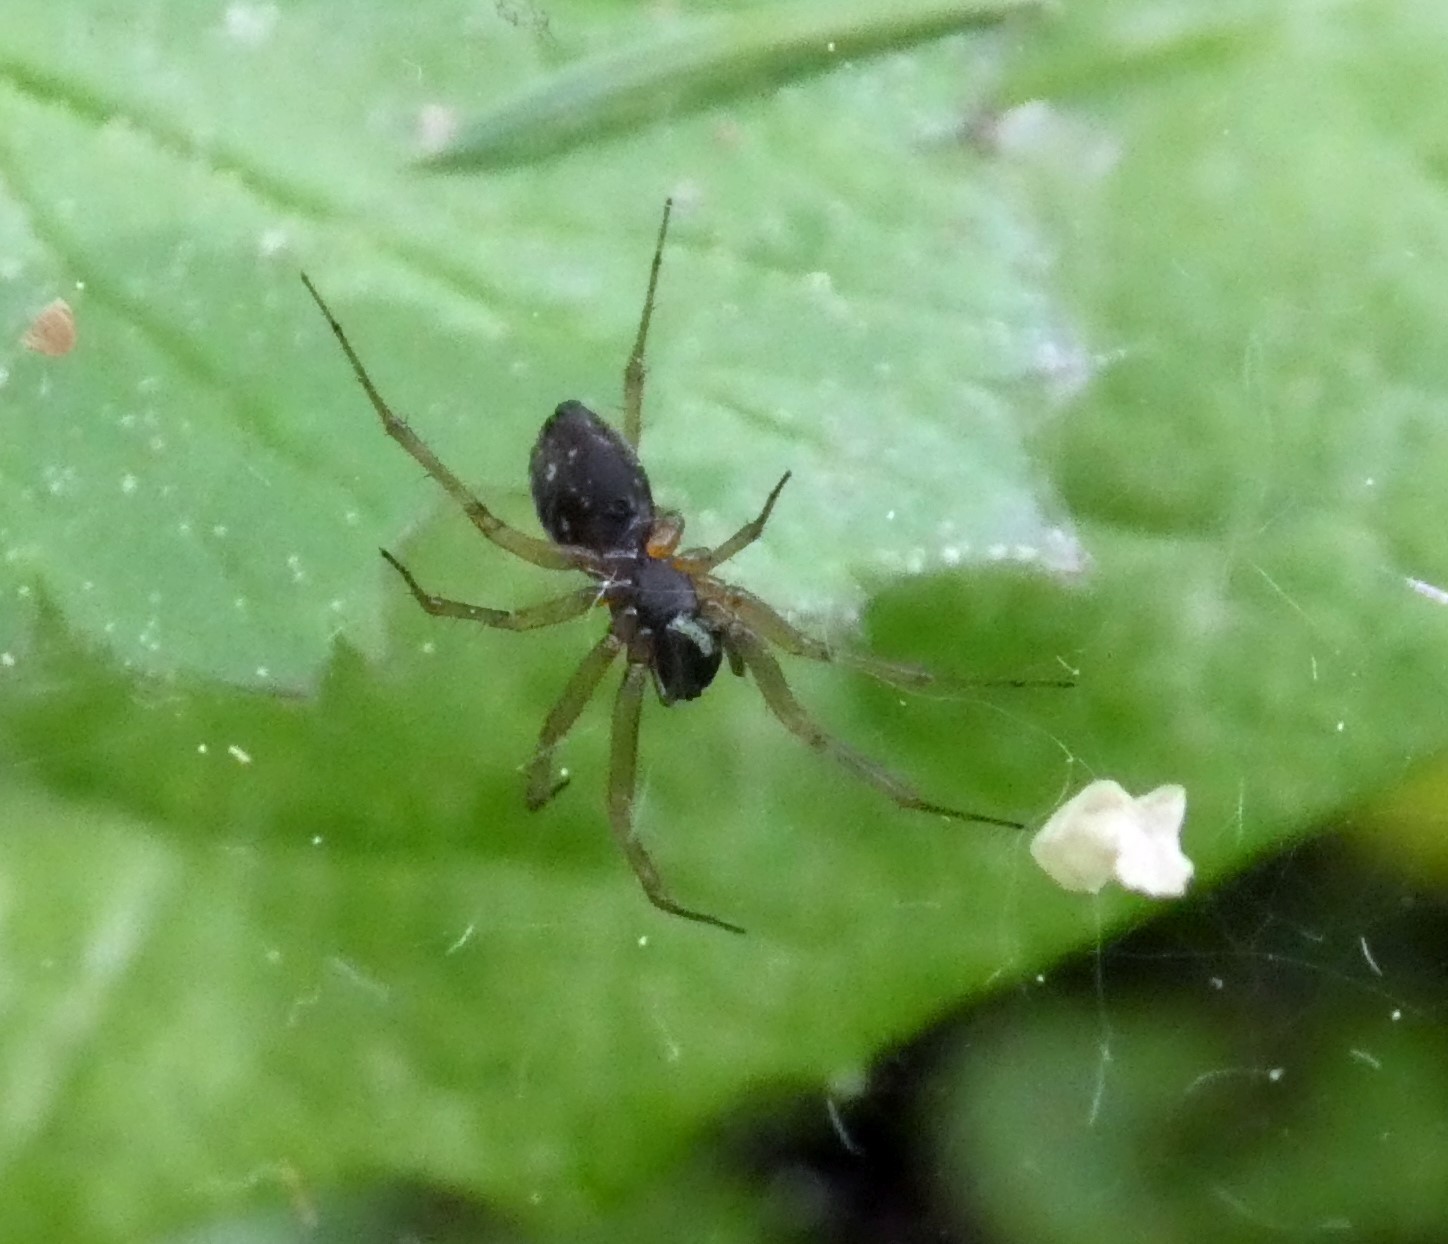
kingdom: Animalia
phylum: Arthropoda
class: Arachnida
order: Araneae
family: Linyphiidae
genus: Neriene
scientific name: Neriene clathrata
